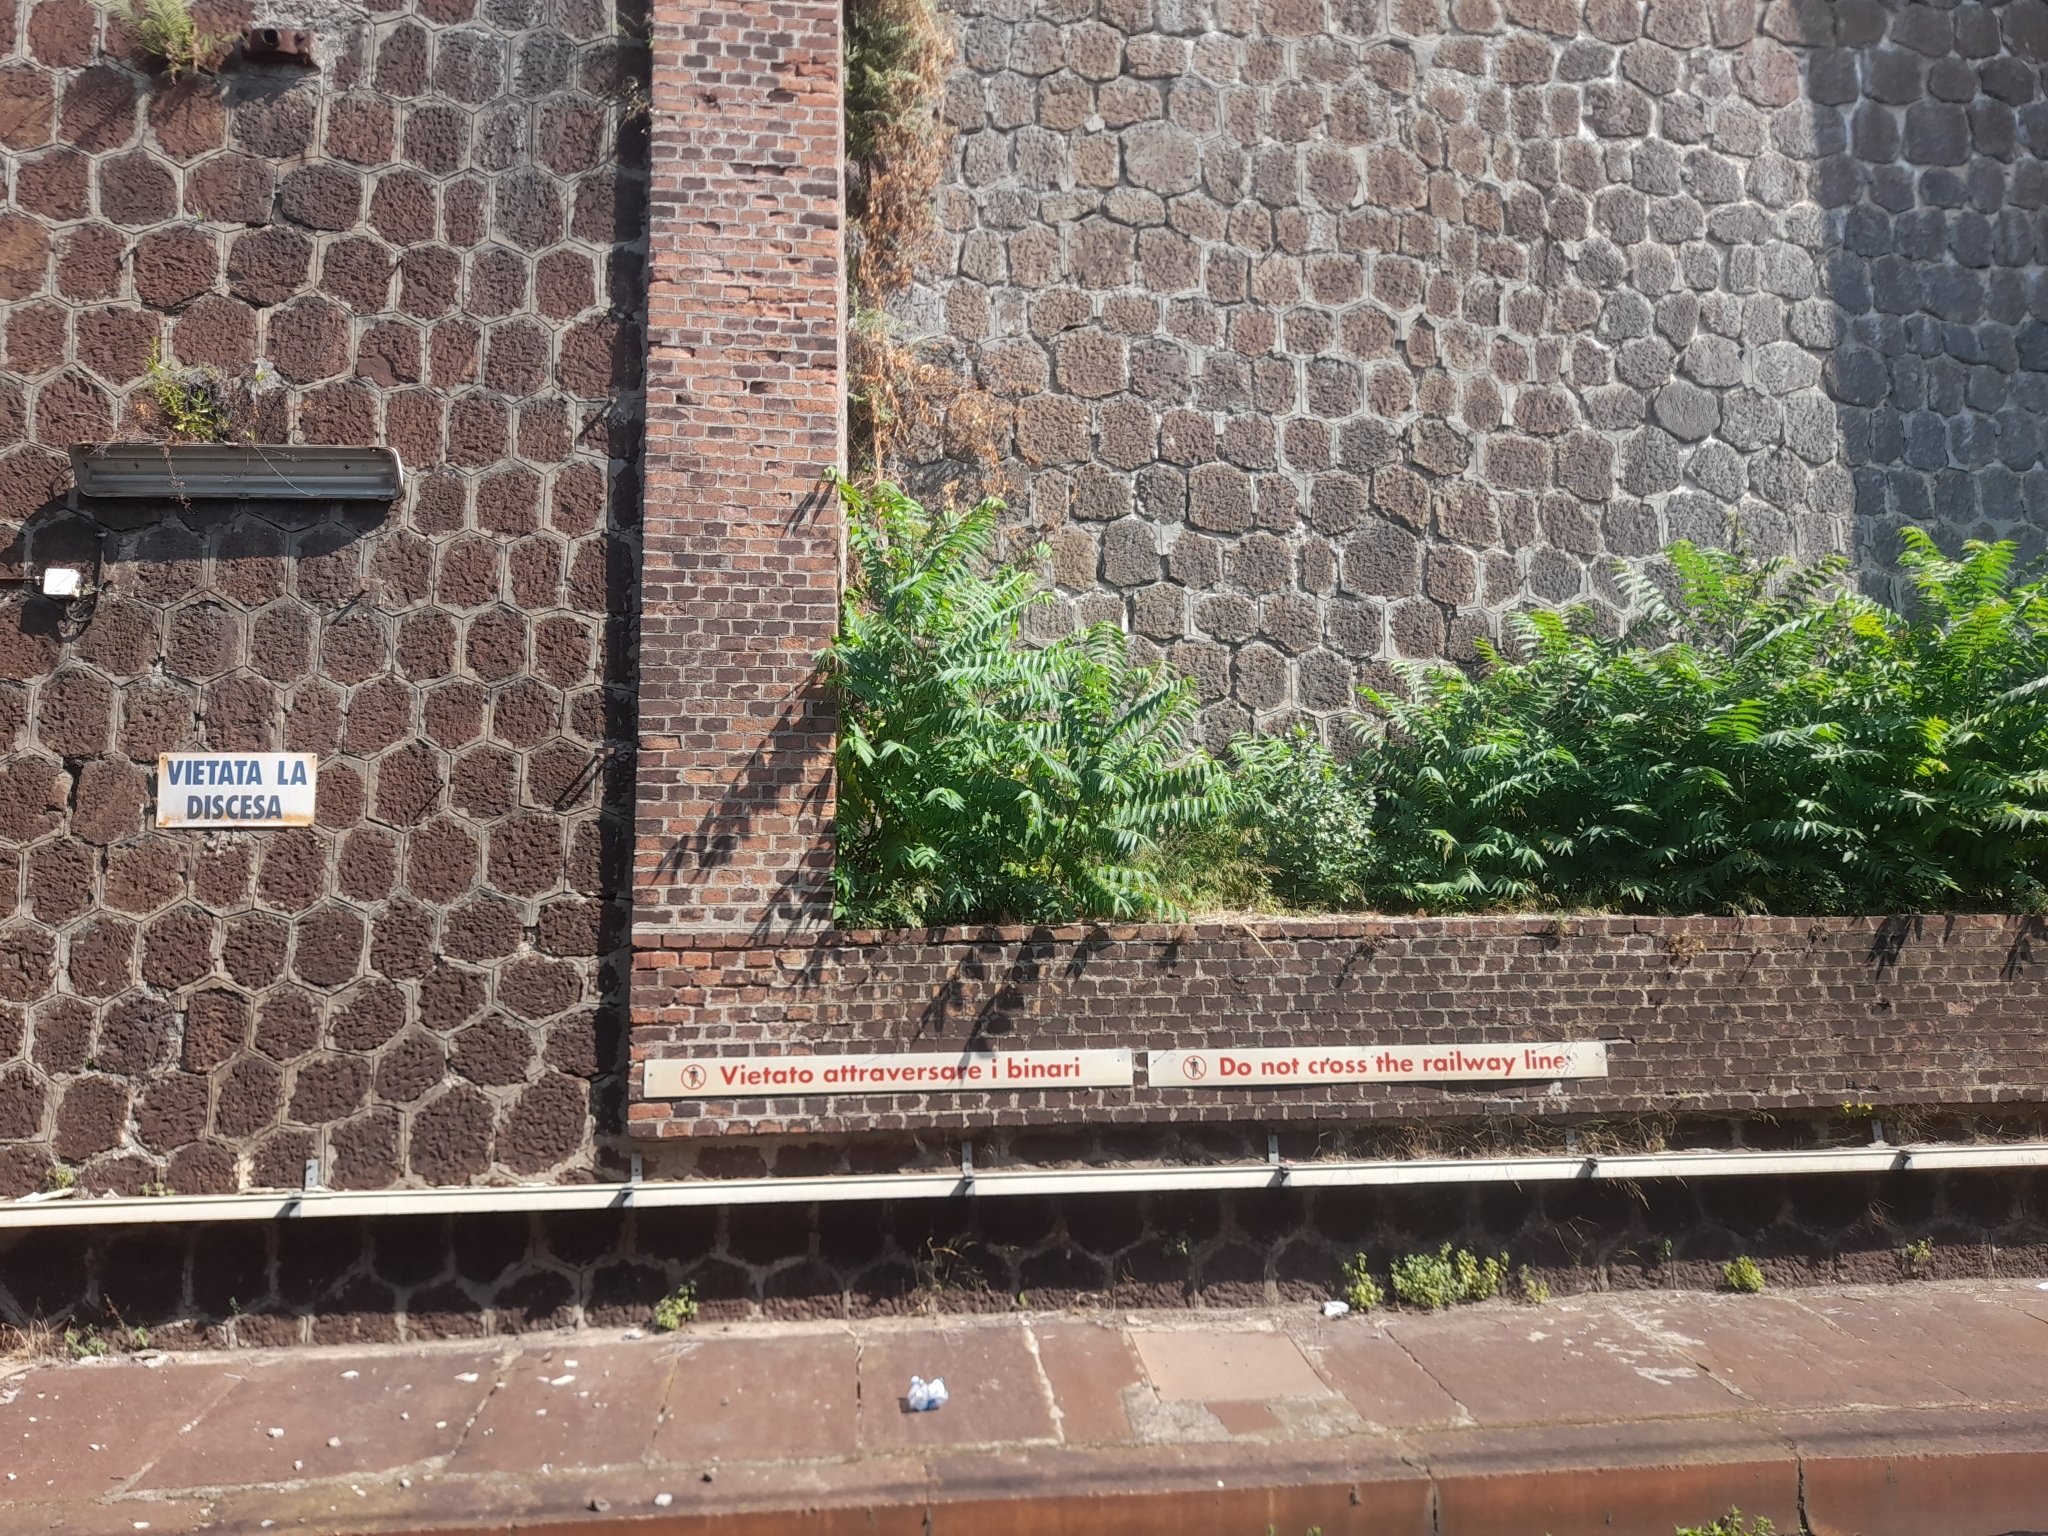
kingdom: Plantae
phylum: Tracheophyta
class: Magnoliopsida
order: Sapindales
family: Simaroubaceae
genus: Ailanthus
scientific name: Ailanthus altissima
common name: Tree-of-heaven
